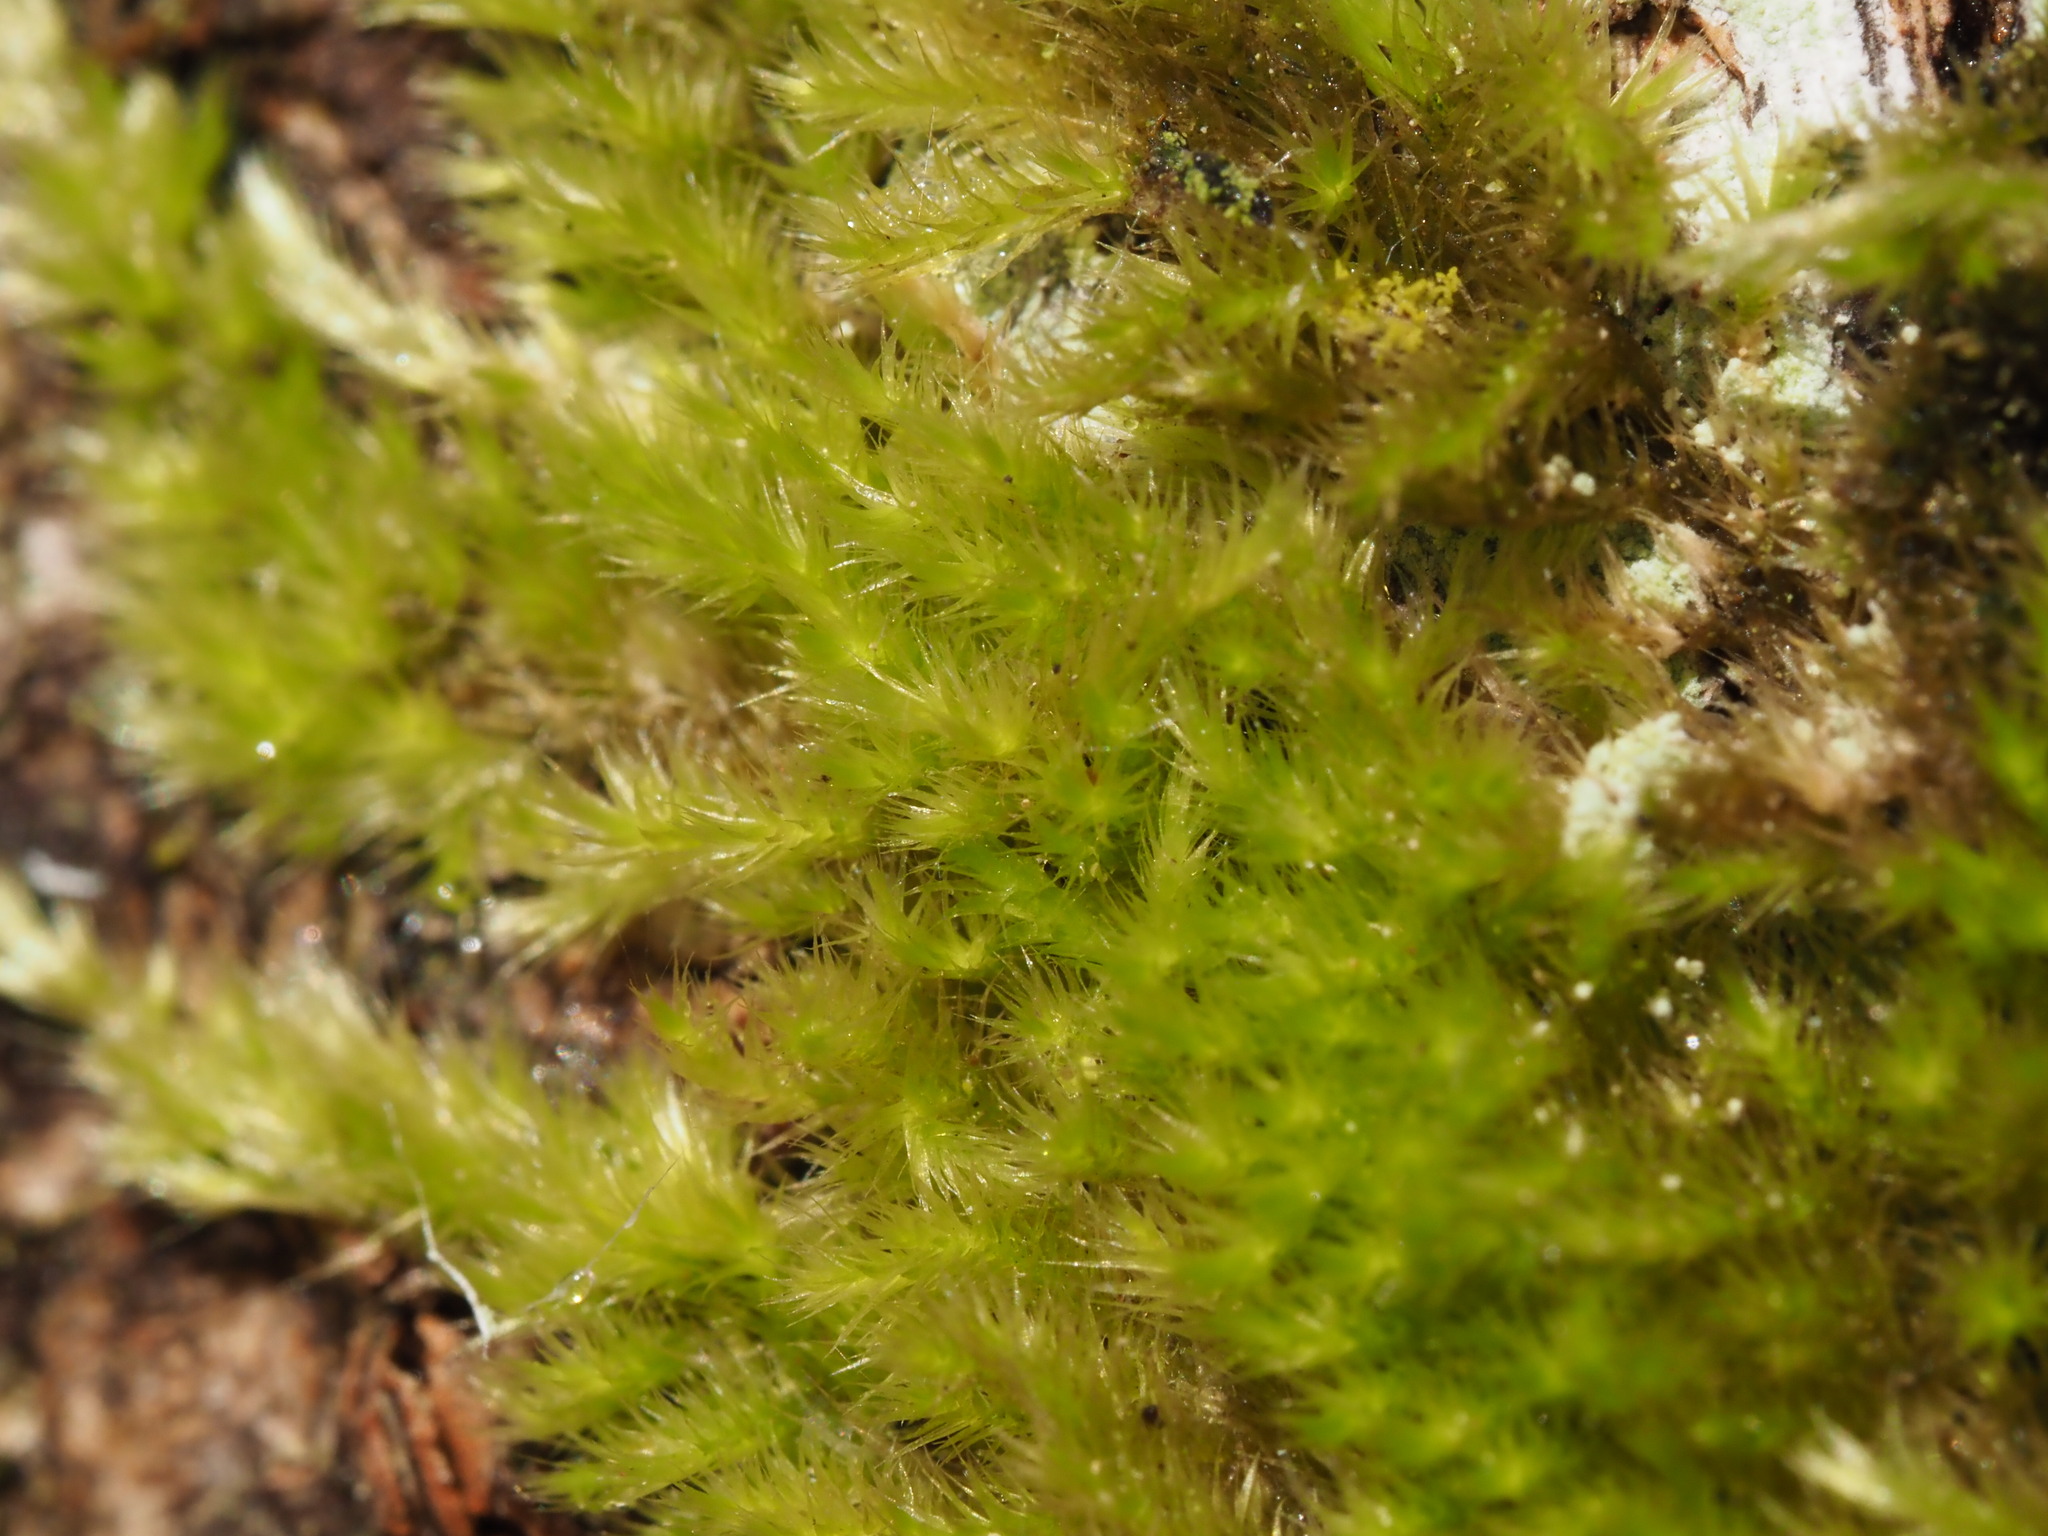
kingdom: Plantae
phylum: Bryophyta
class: Bryopsida
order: Hypnales
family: Brachytheciaceae
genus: Homalothecium
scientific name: Homalothecium nuttallii
